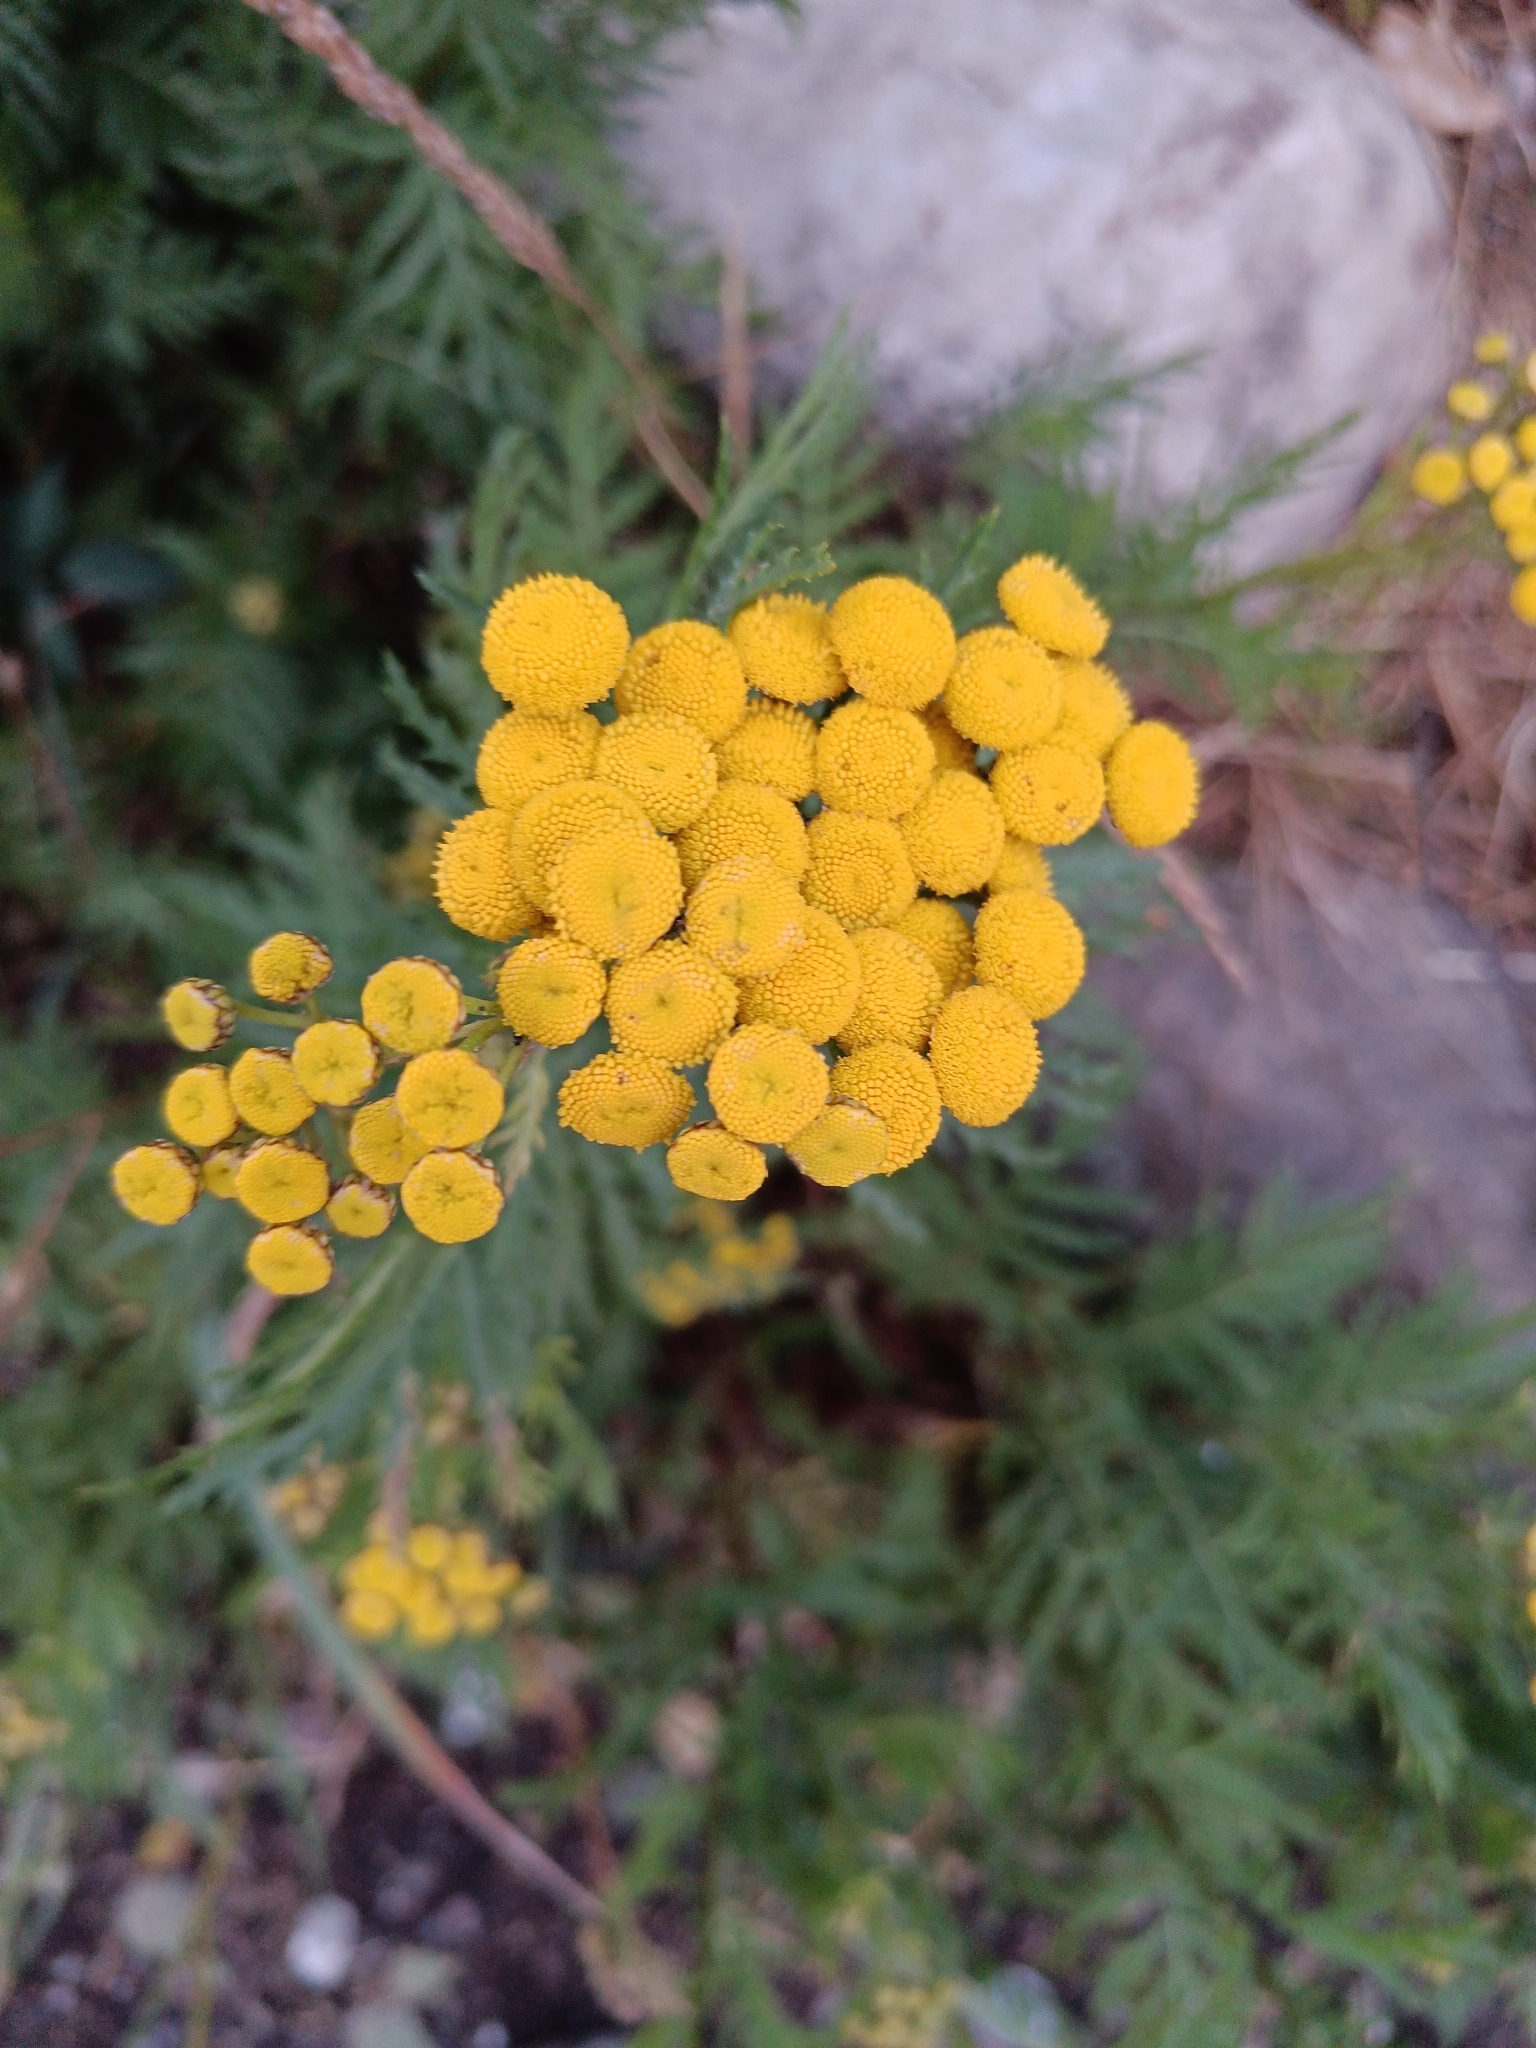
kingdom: Plantae
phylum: Tracheophyta
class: Magnoliopsida
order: Asterales
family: Asteraceae
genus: Tanacetum
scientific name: Tanacetum vulgare
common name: Common tansy
